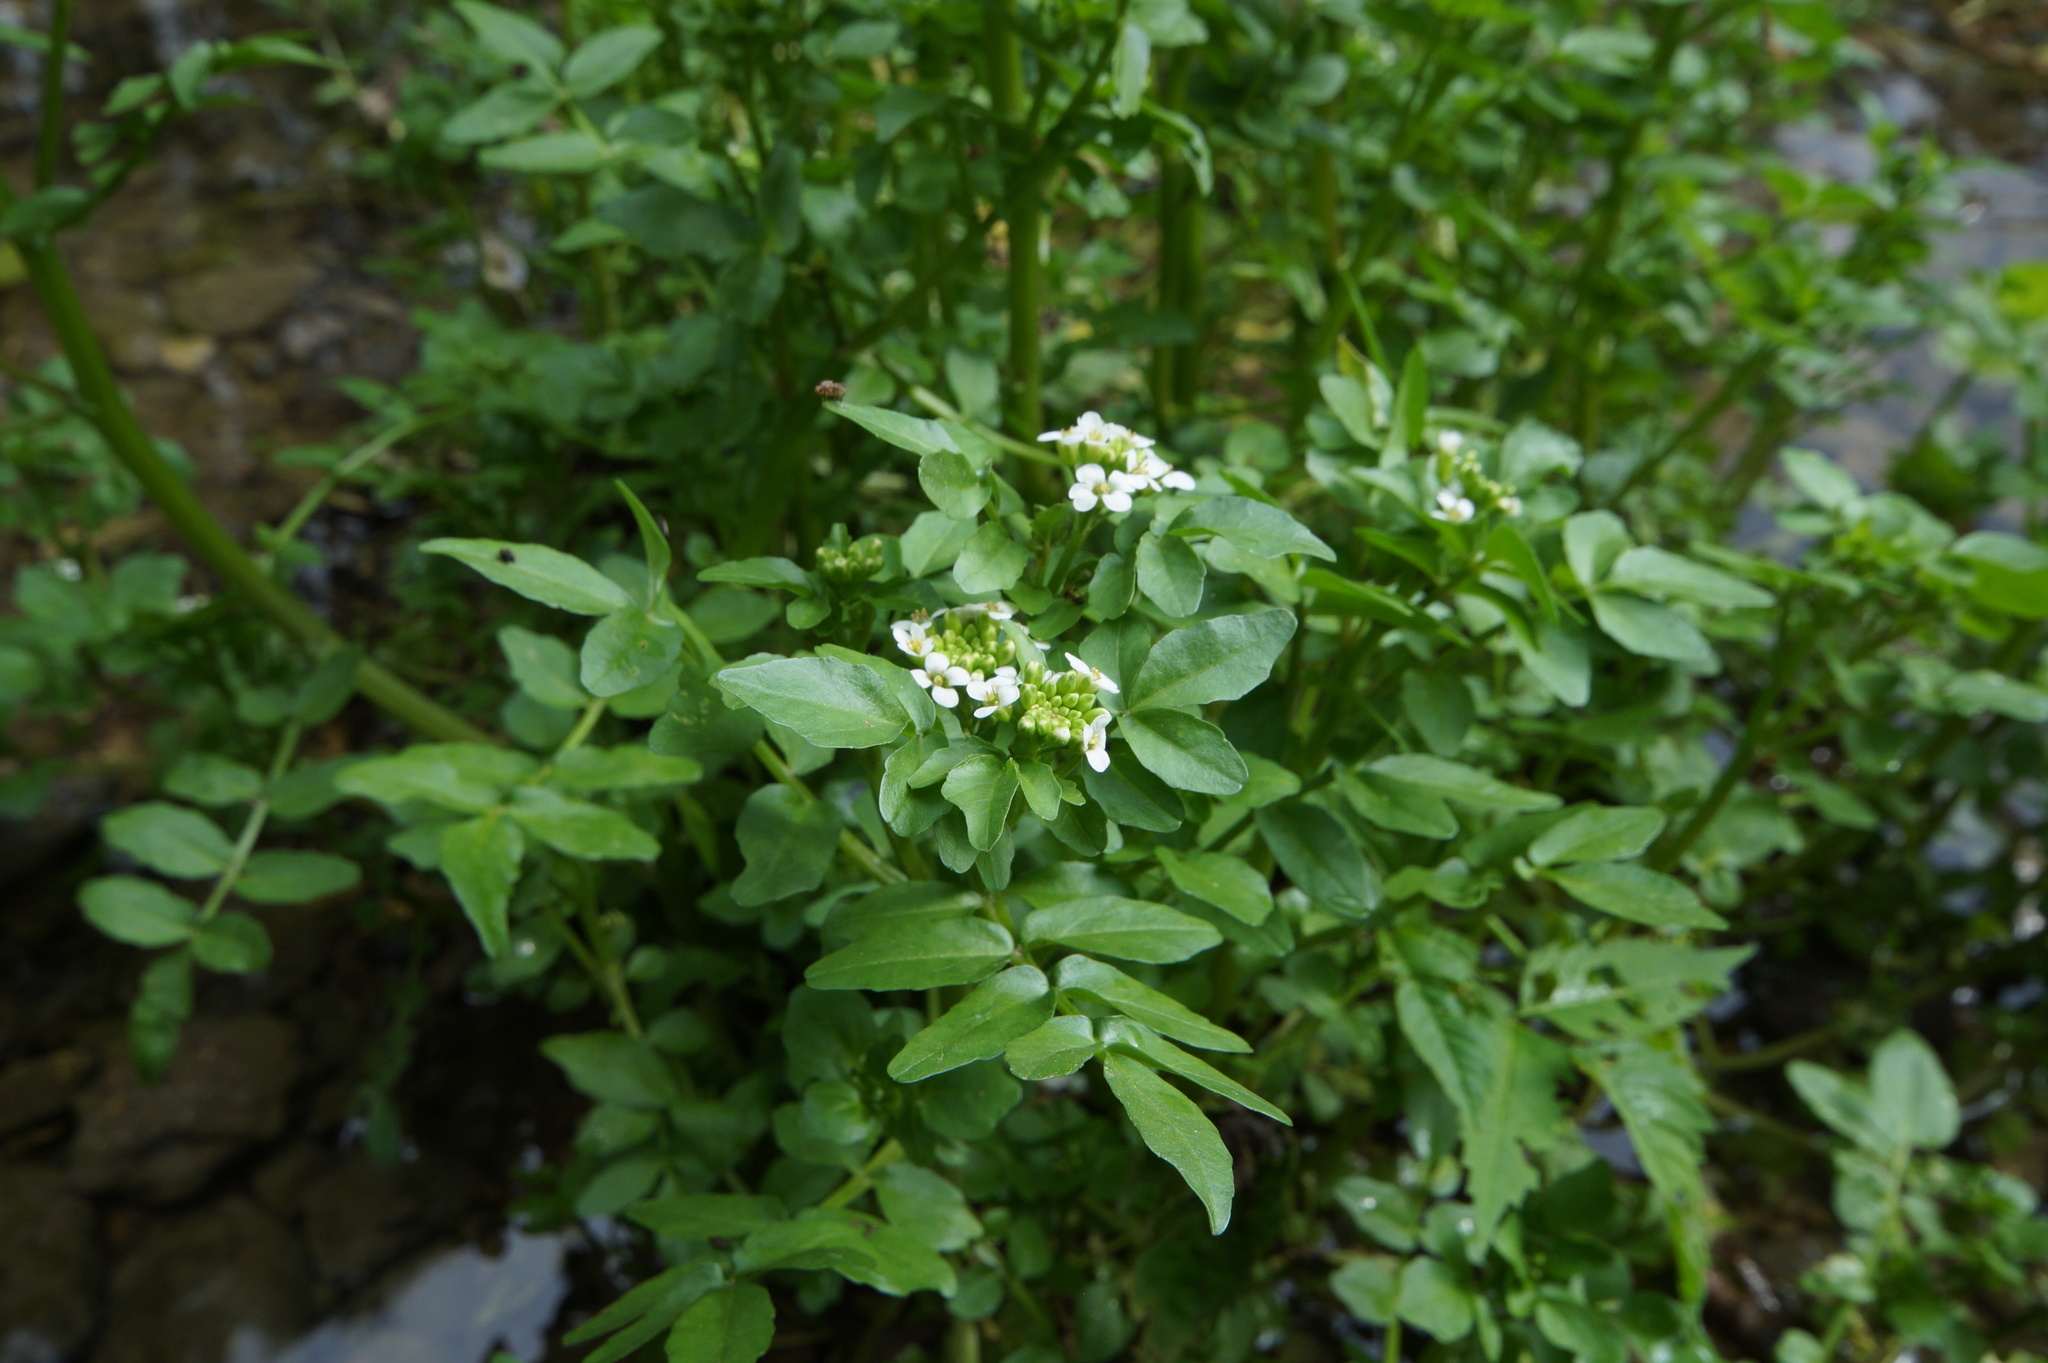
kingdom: Plantae
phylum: Tracheophyta
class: Magnoliopsida
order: Brassicales
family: Brassicaceae
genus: Nasturtium
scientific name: Nasturtium officinale
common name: Watercress
